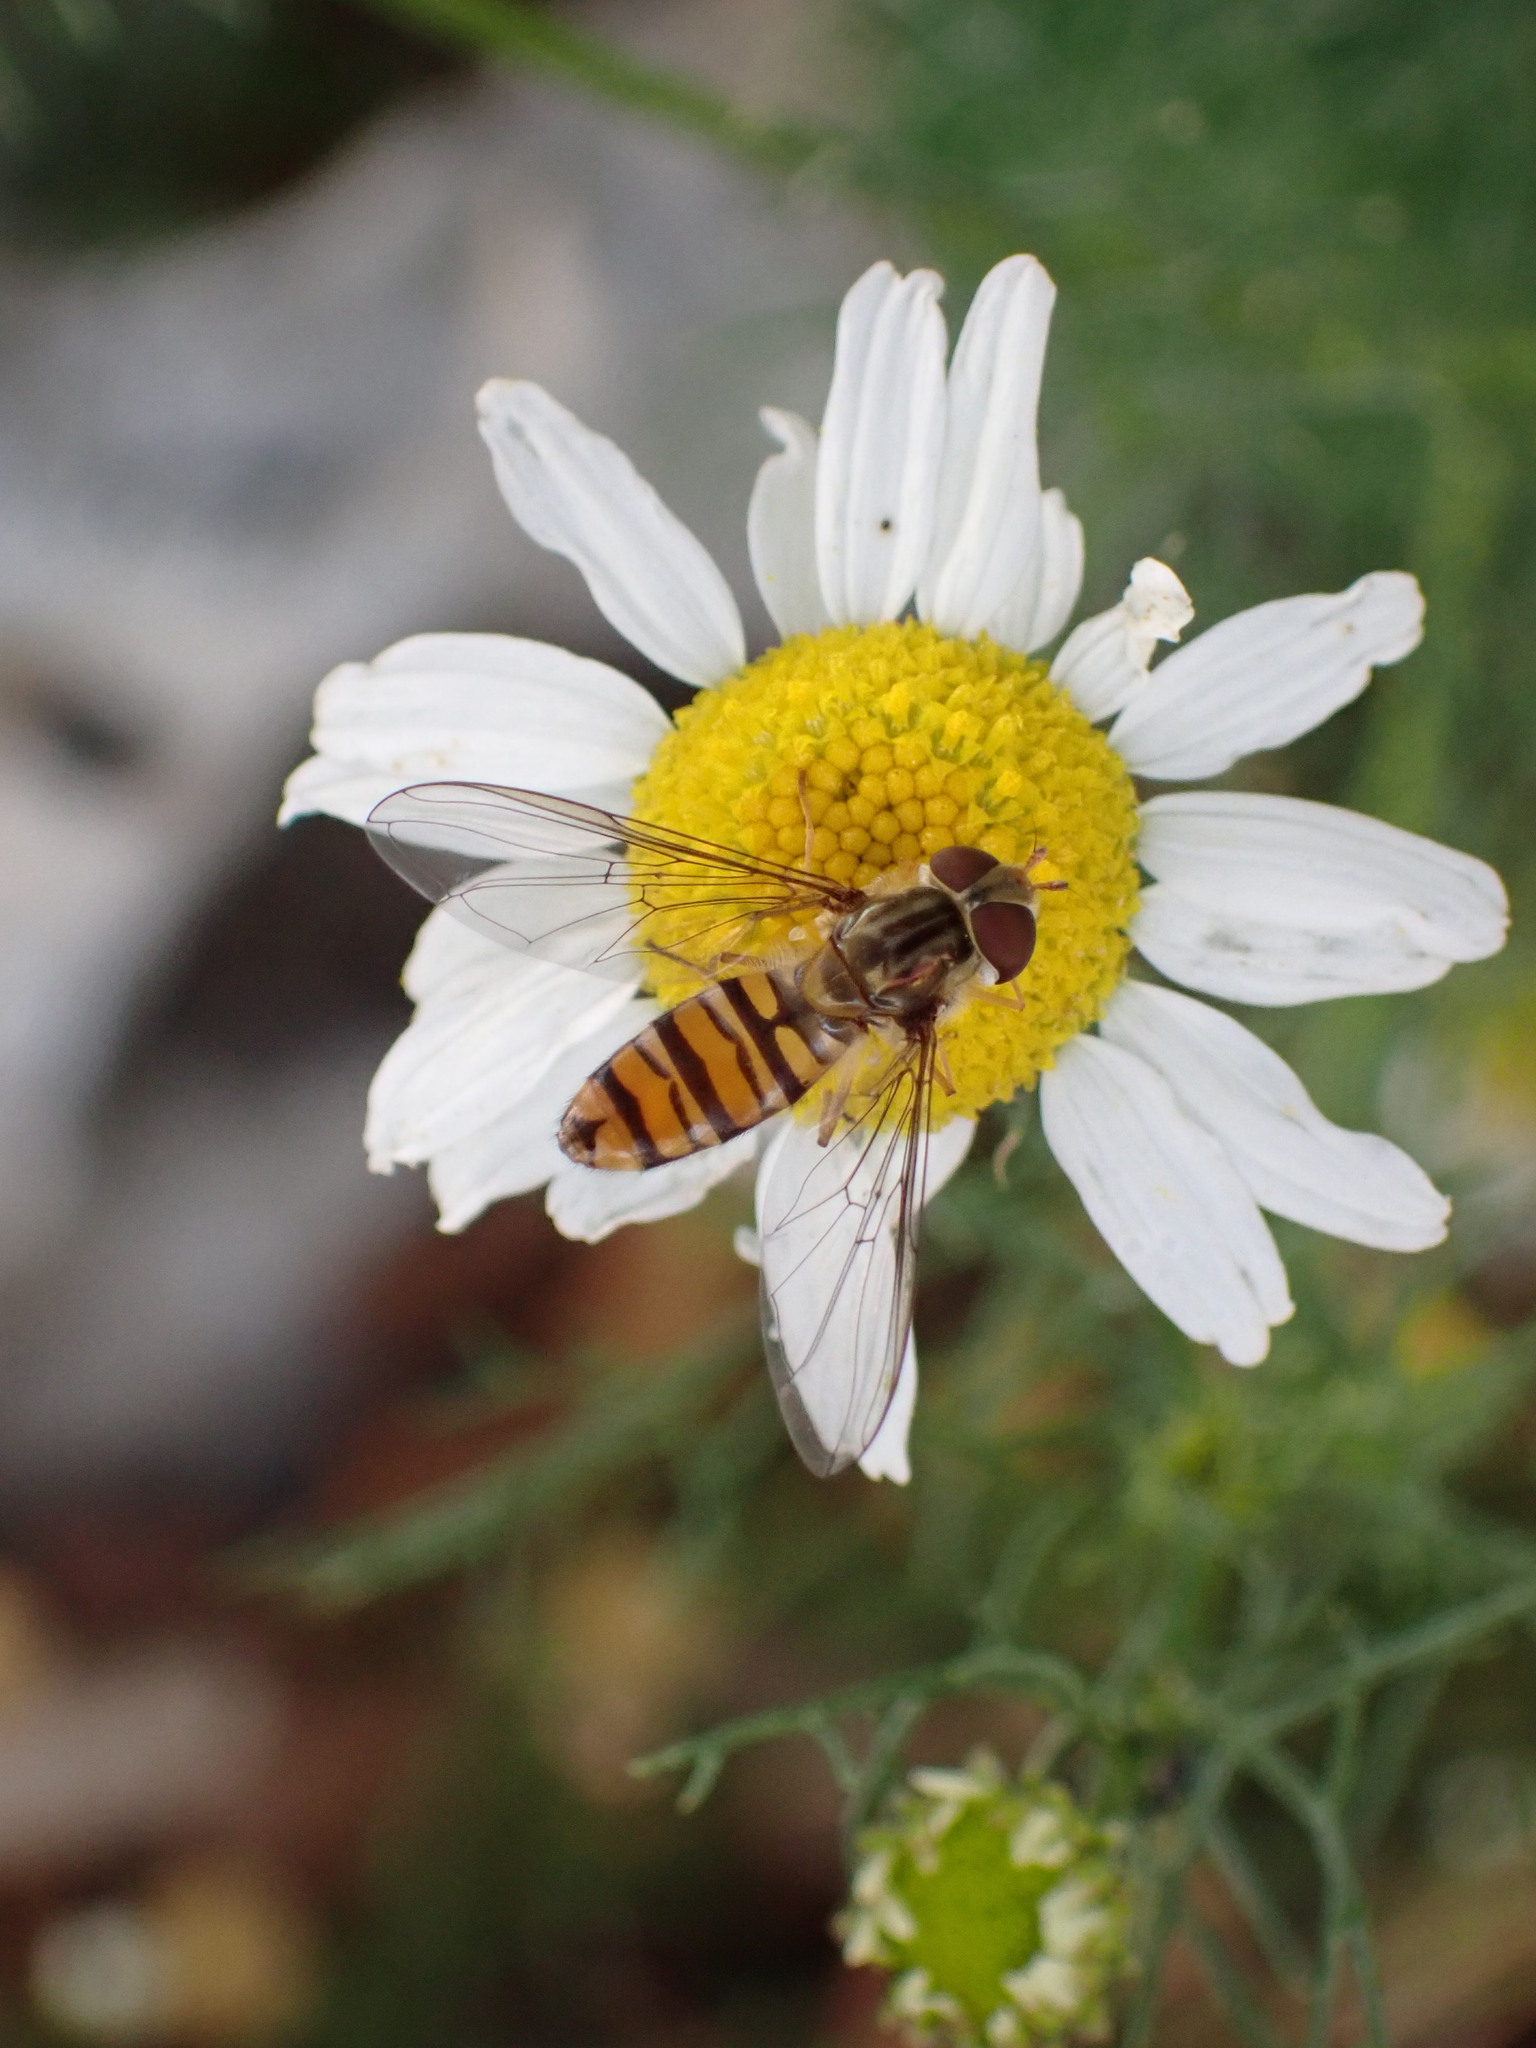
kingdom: Animalia
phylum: Arthropoda
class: Insecta
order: Diptera
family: Syrphidae
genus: Episyrphus
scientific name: Episyrphus balteatus
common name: Marmalade hoverfly
